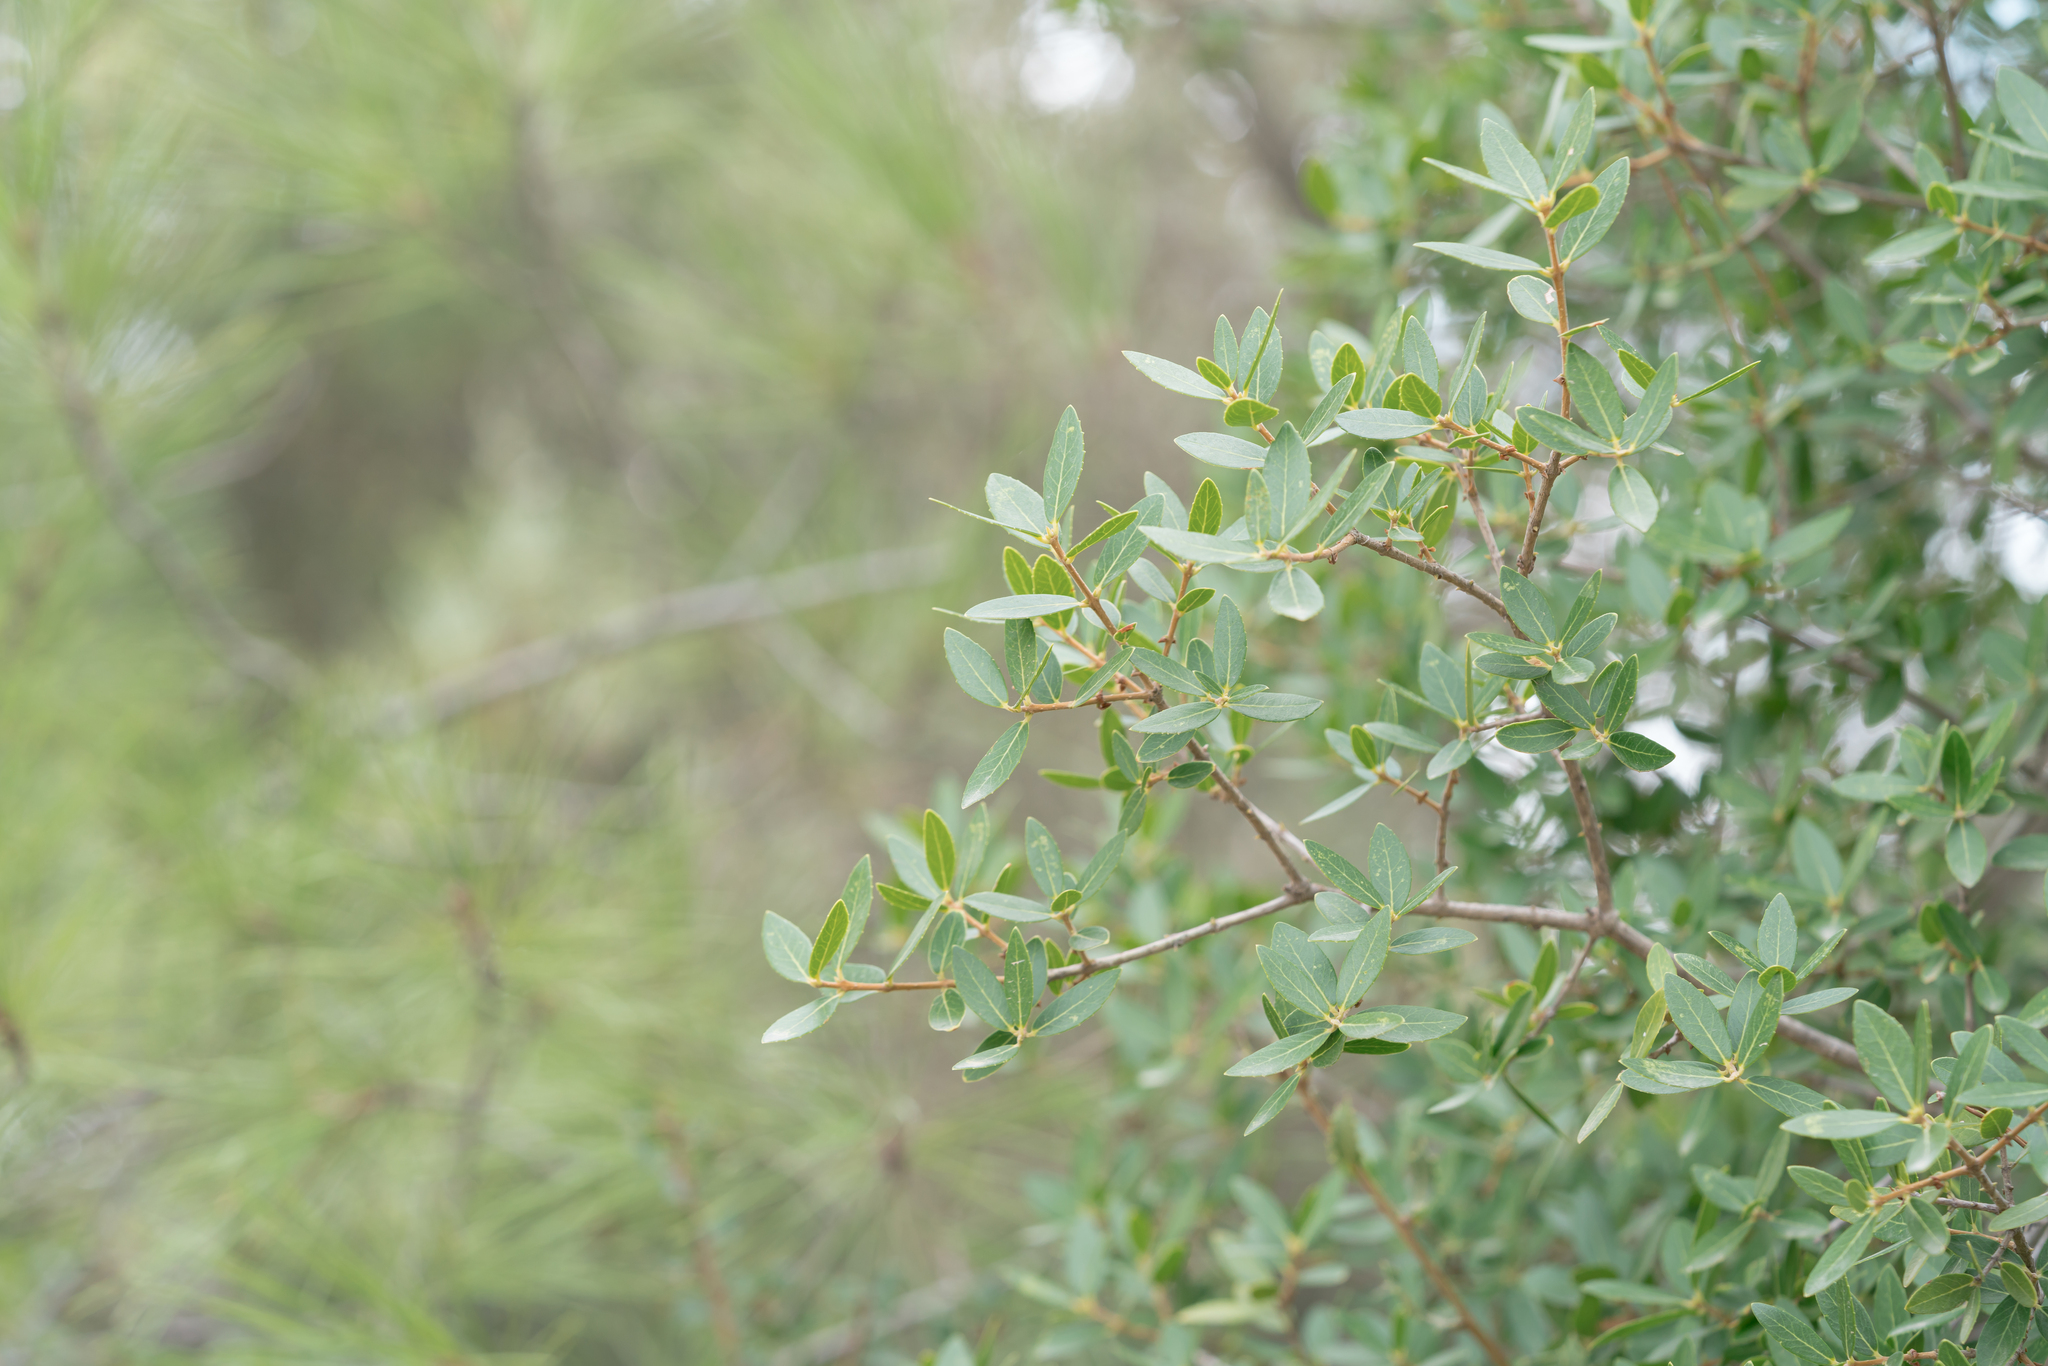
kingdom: Plantae
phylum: Tracheophyta
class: Magnoliopsida
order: Lamiales
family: Oleaceae
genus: Phillyrea
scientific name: Phillyrea latifolia
